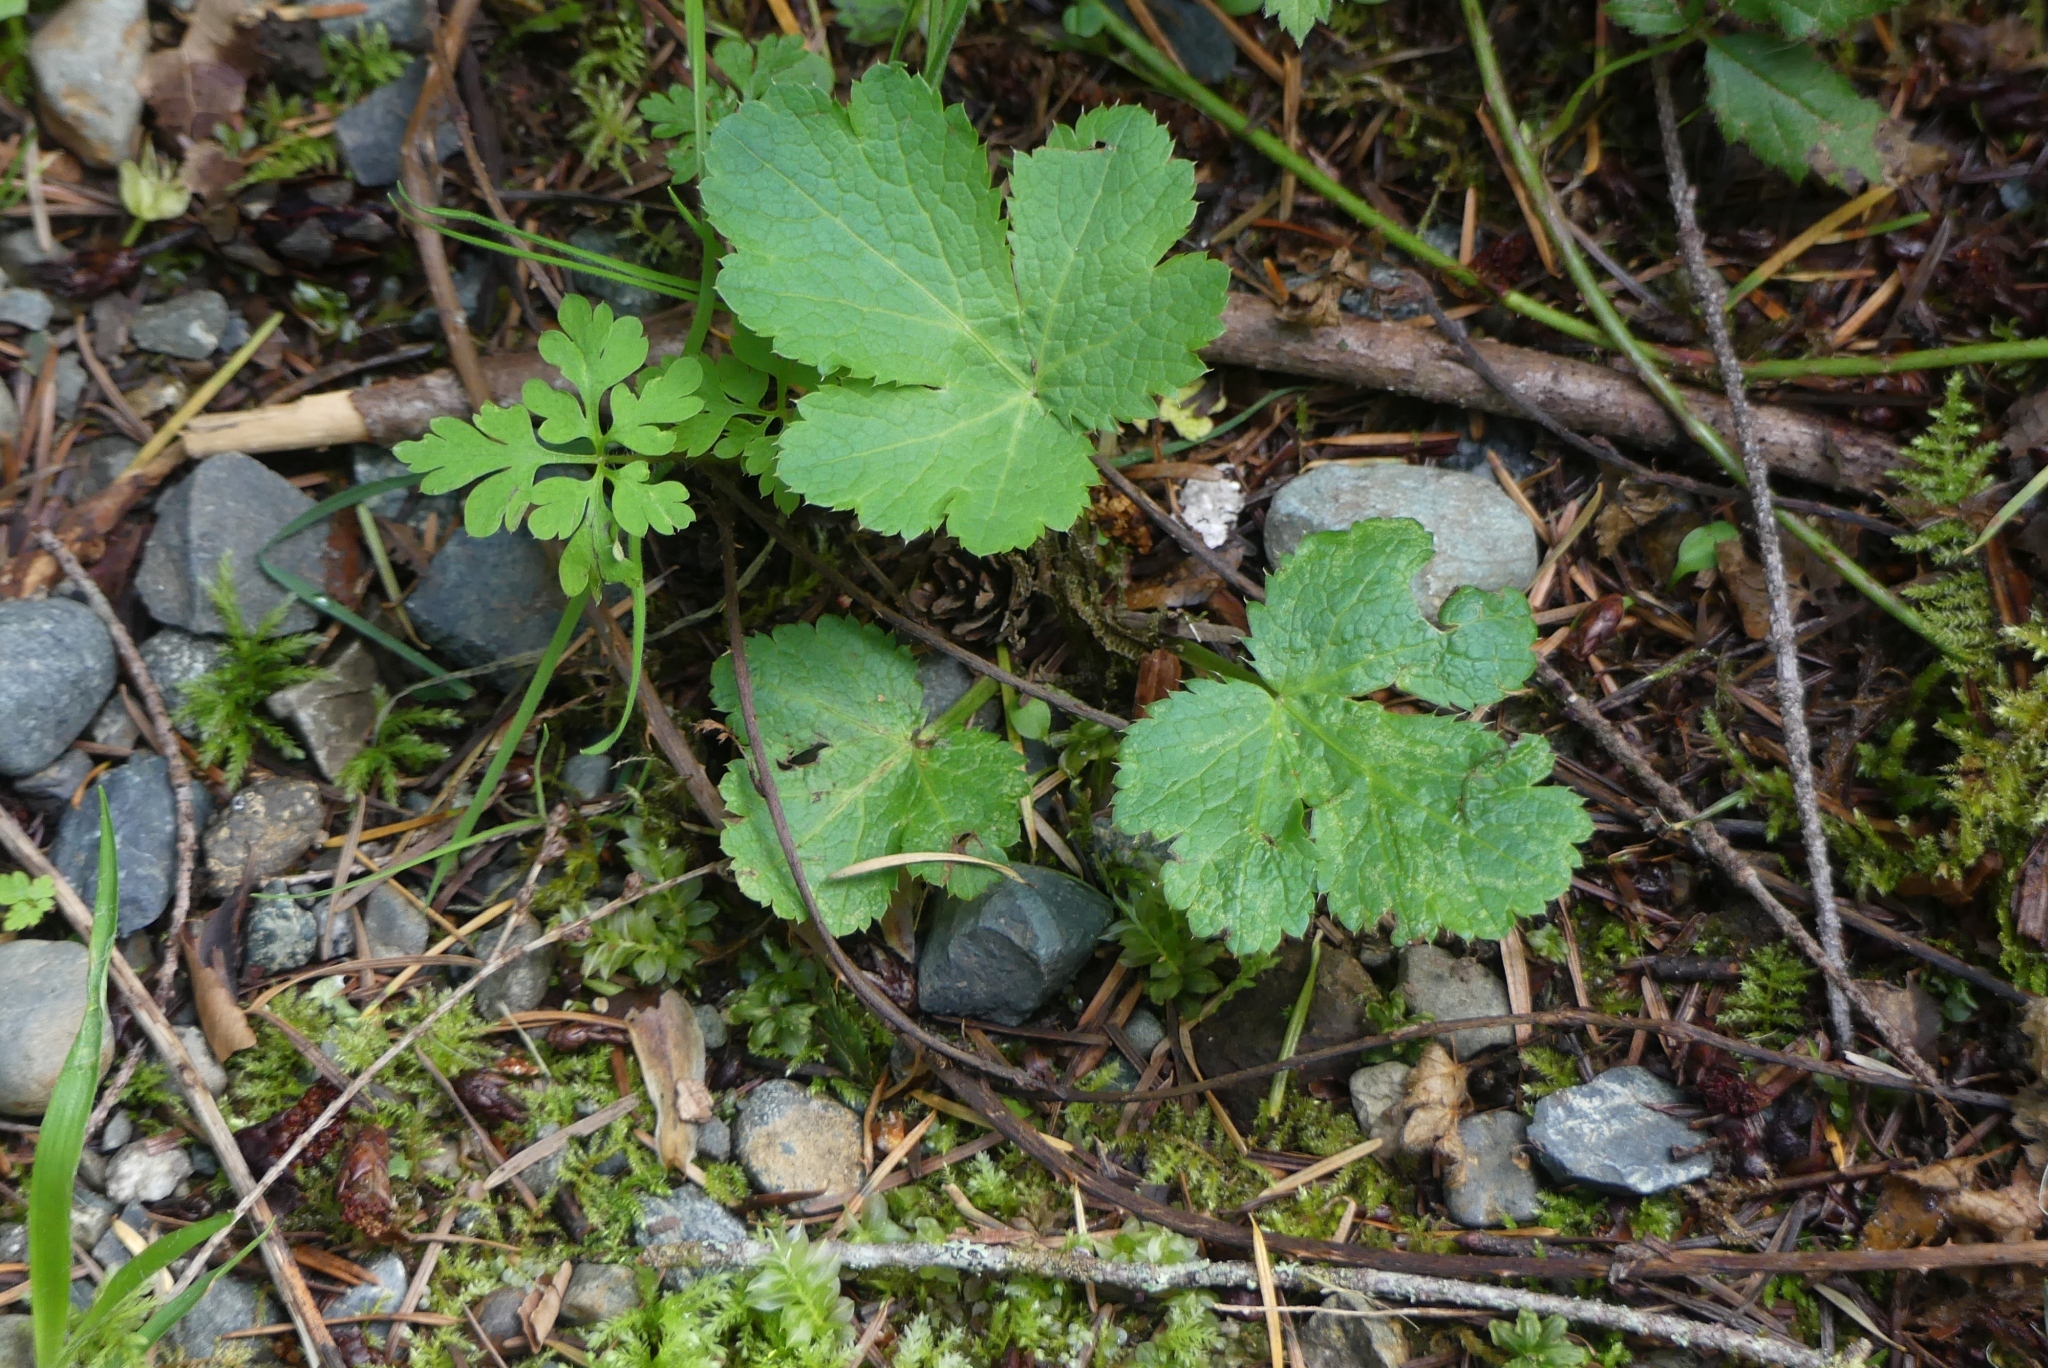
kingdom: Plantae
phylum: Tracheophyta
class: Magnoliopsida
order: Apiales
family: Apiaceae
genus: Sanicula
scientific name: Sanicula crassicaulis
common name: Western snakeroot
